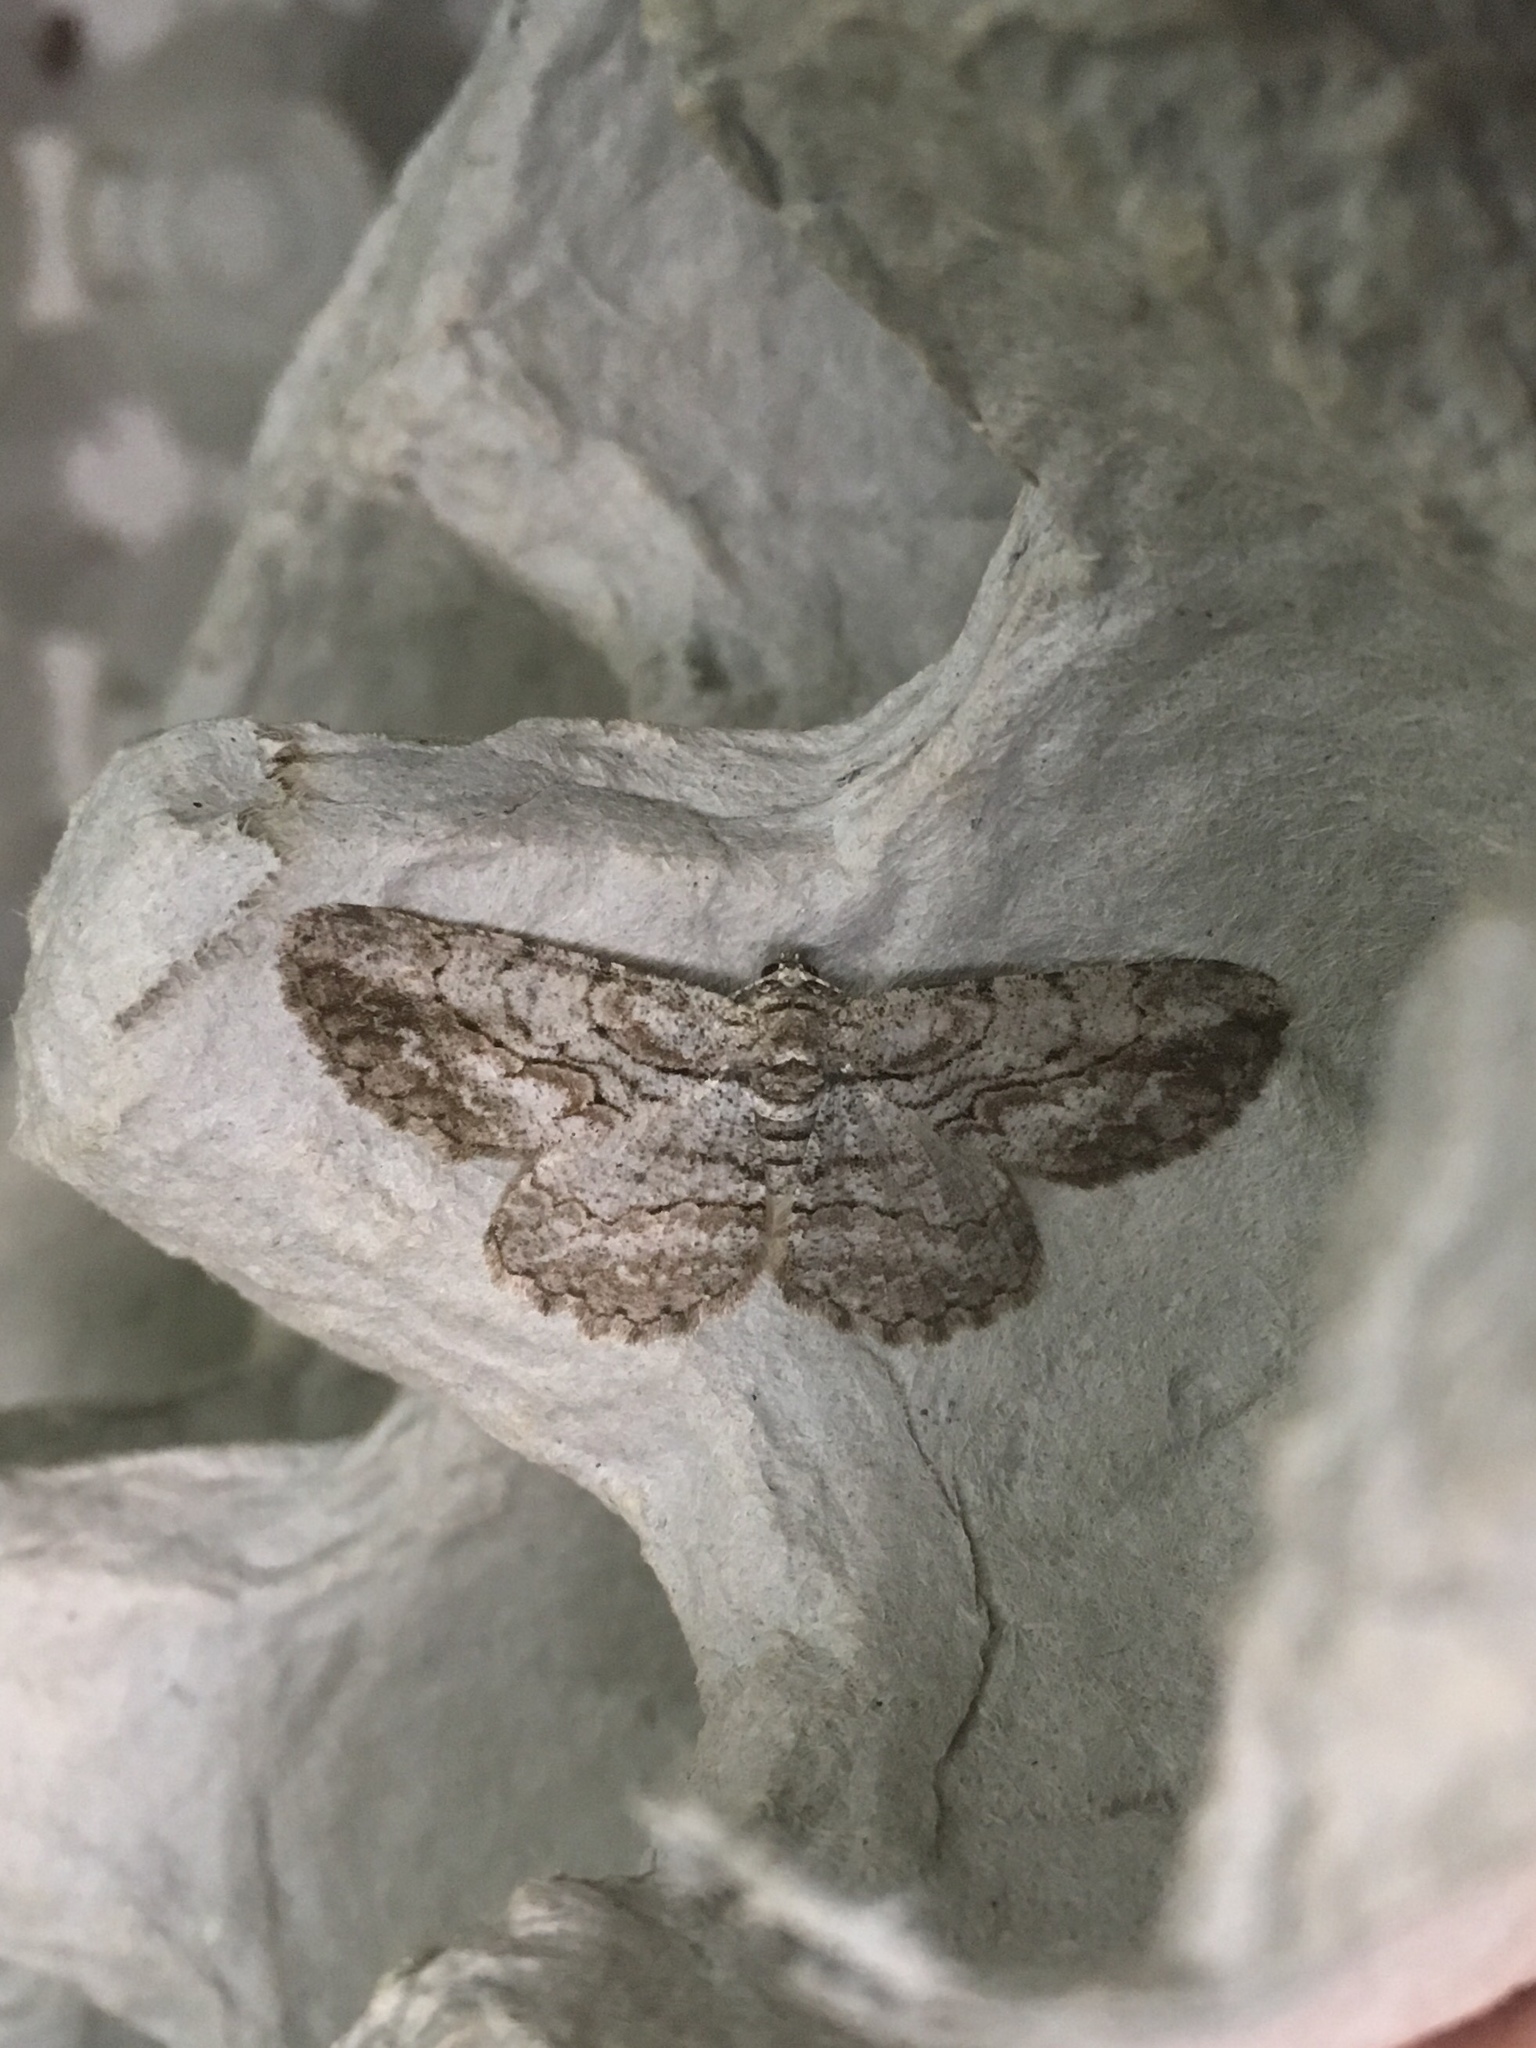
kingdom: Animalia
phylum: Arthropoda
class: Insecta
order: Lepidoptera
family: Geometridae
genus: Anavitrinella
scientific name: Anavitrinella pampinaria
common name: Common gray
